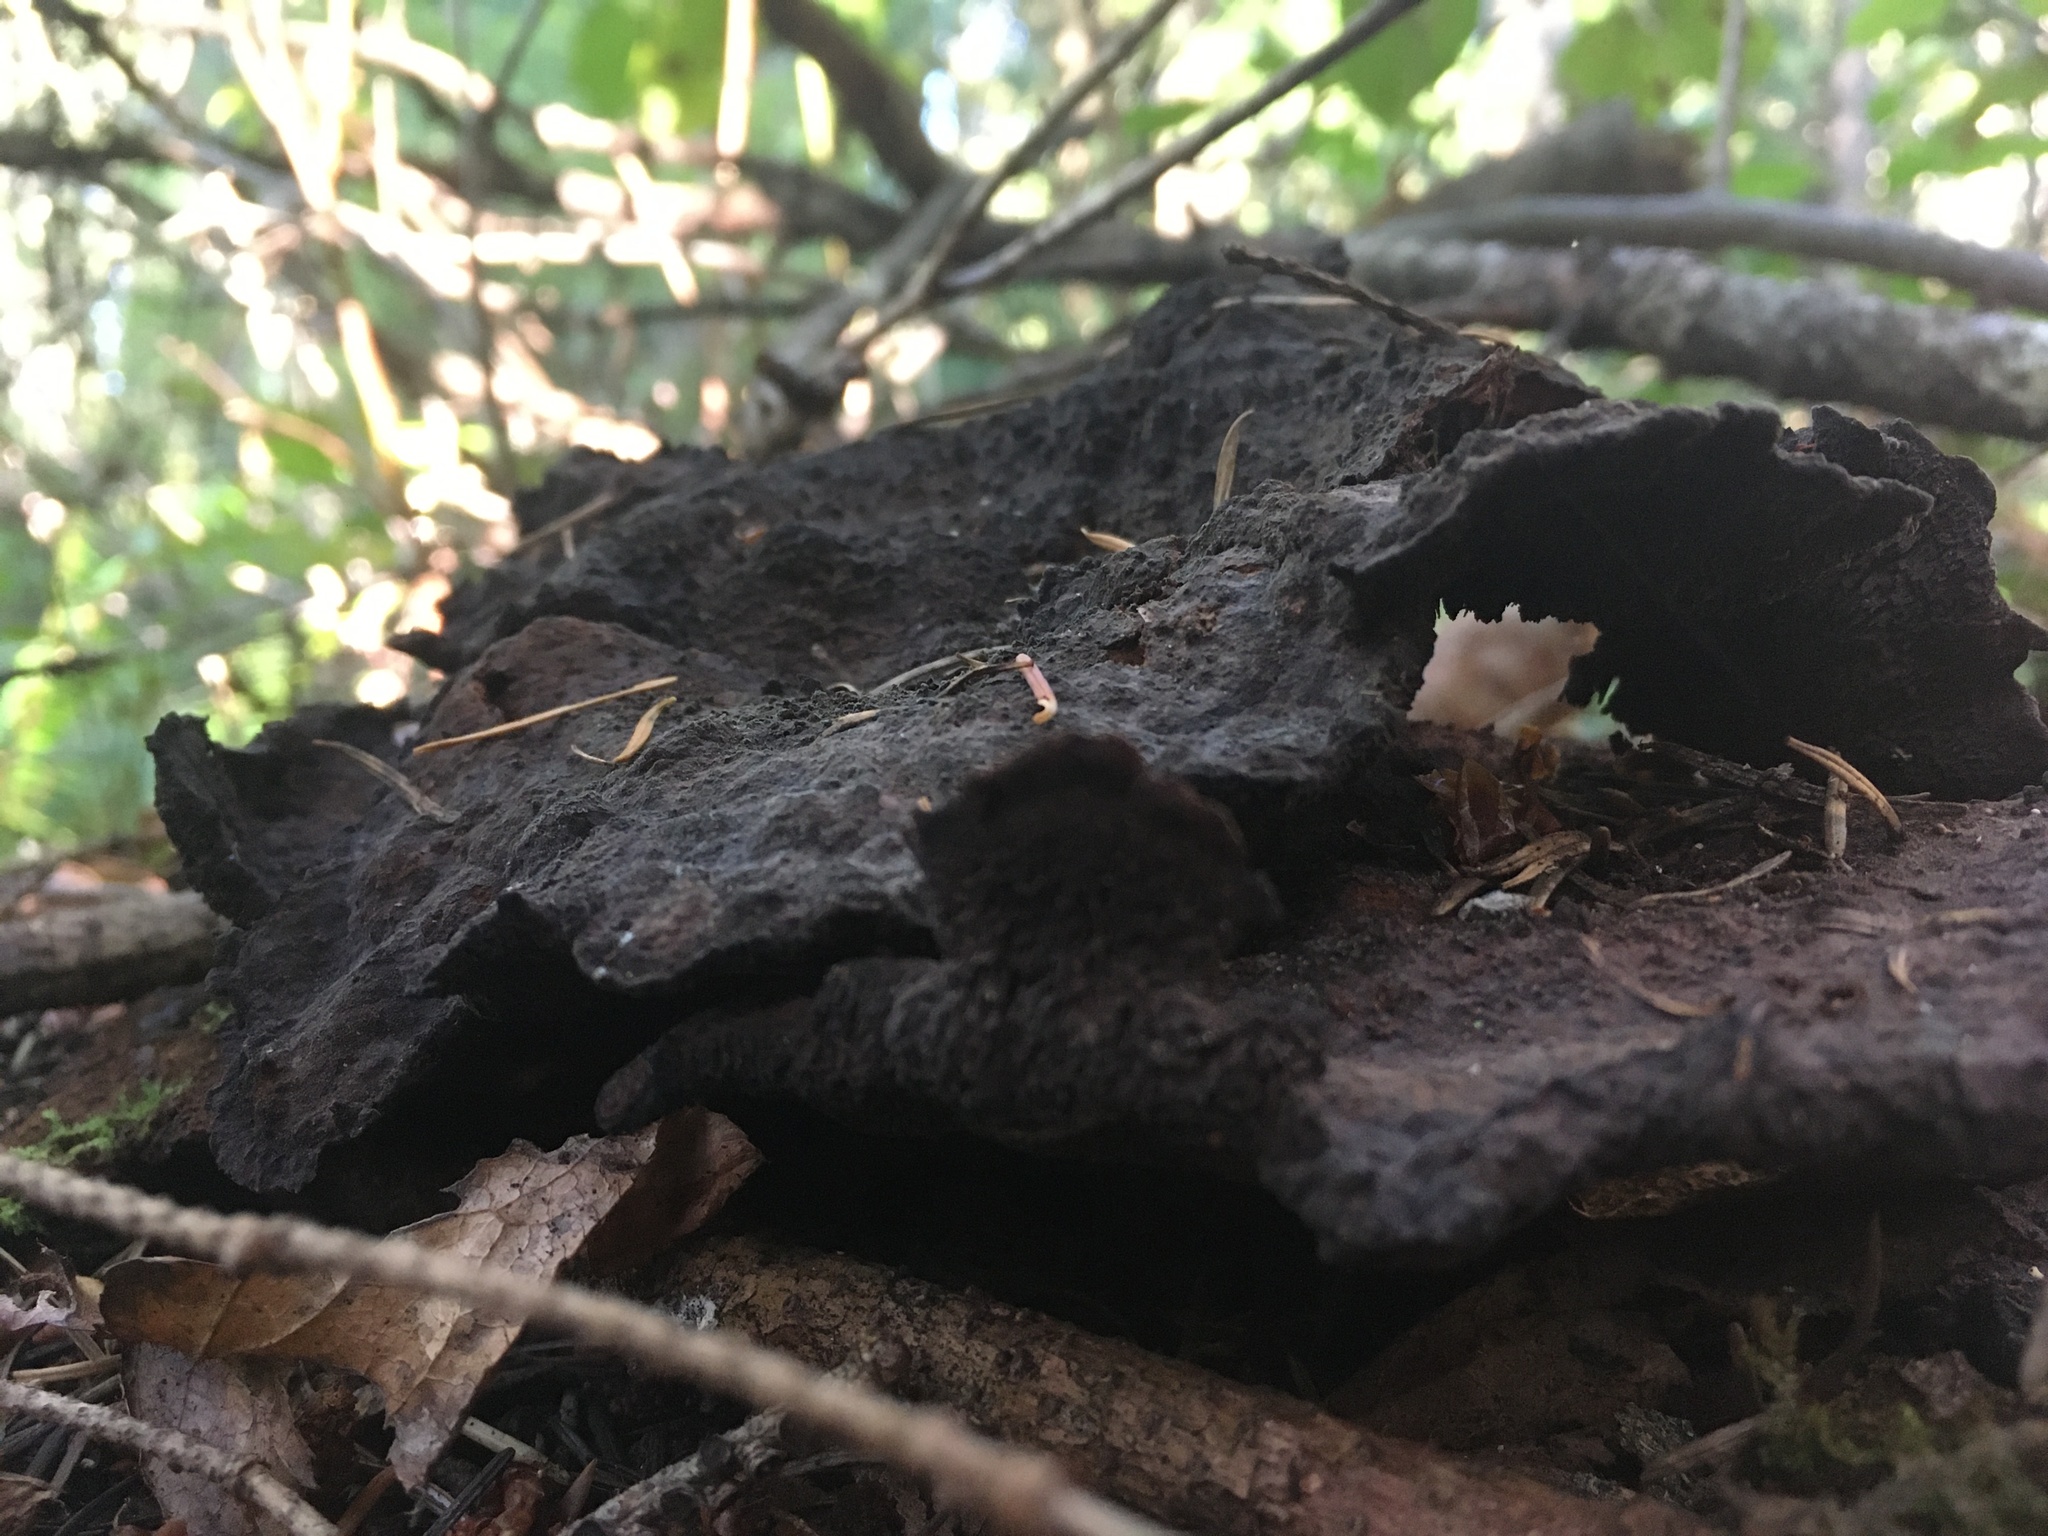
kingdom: Fungi
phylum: Basidiomycota
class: Agaricomycetes
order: Polyporales
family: Laetiporaceae
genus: Phaeolus
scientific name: Phaeolus schweinitzii
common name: Dyer's mazegill
